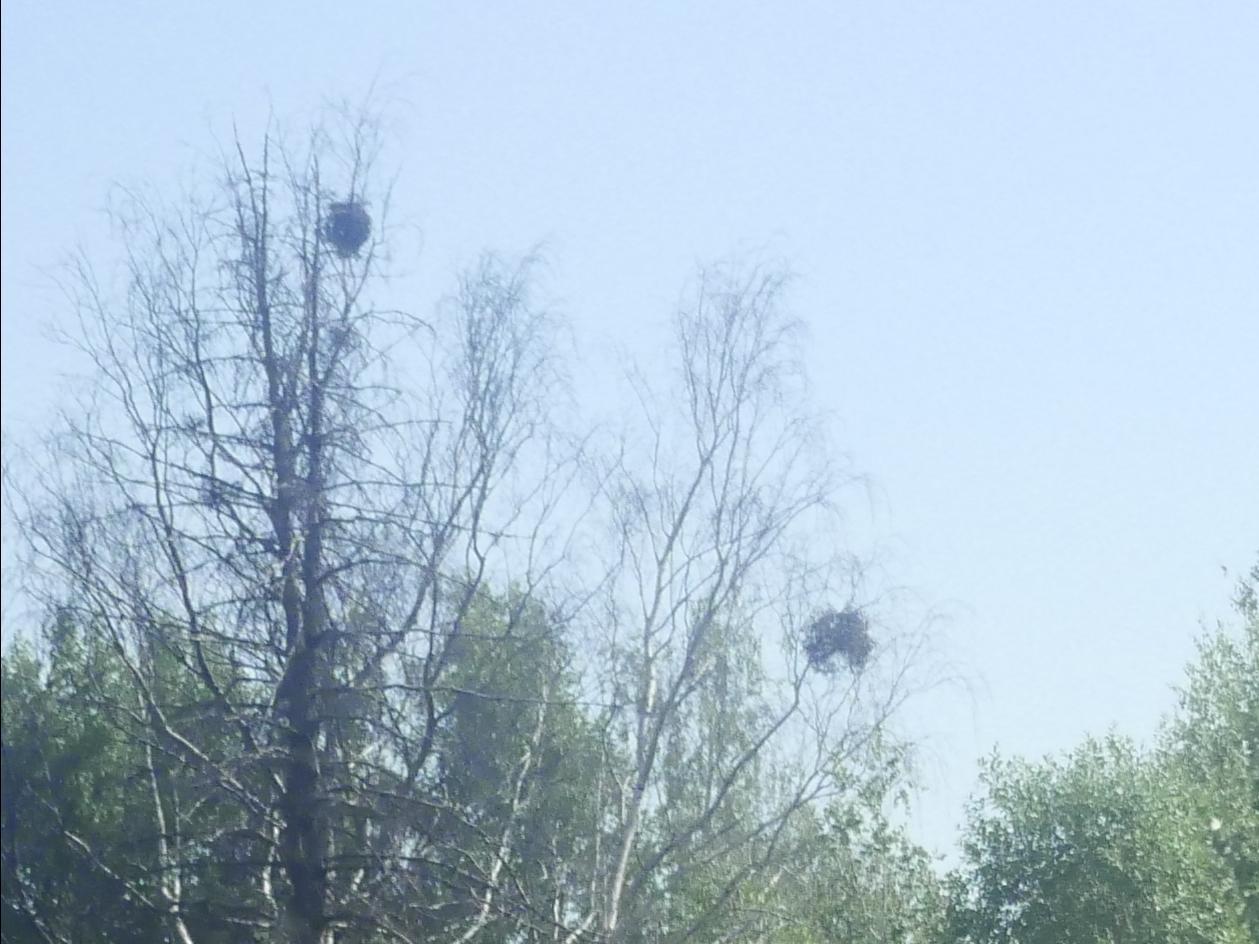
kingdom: Plantae
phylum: Tracheophyta
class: Magnoliopsida
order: Santalales
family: Viscaceae
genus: Viscum
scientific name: Viscum album
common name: Mistletoe
